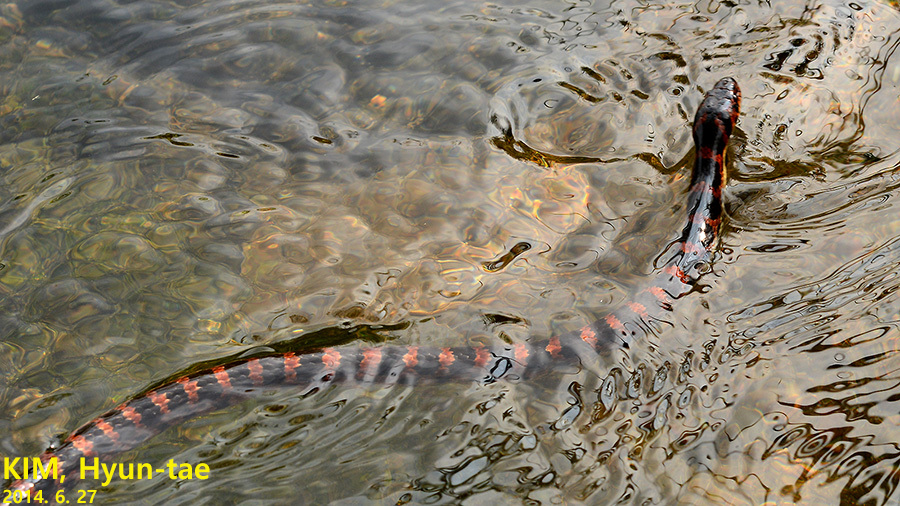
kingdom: Animalia
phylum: Chordata
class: Squamata
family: Colubridae
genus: Lycodon
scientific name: Lycodon rufozonatus
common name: Red-banded snake
